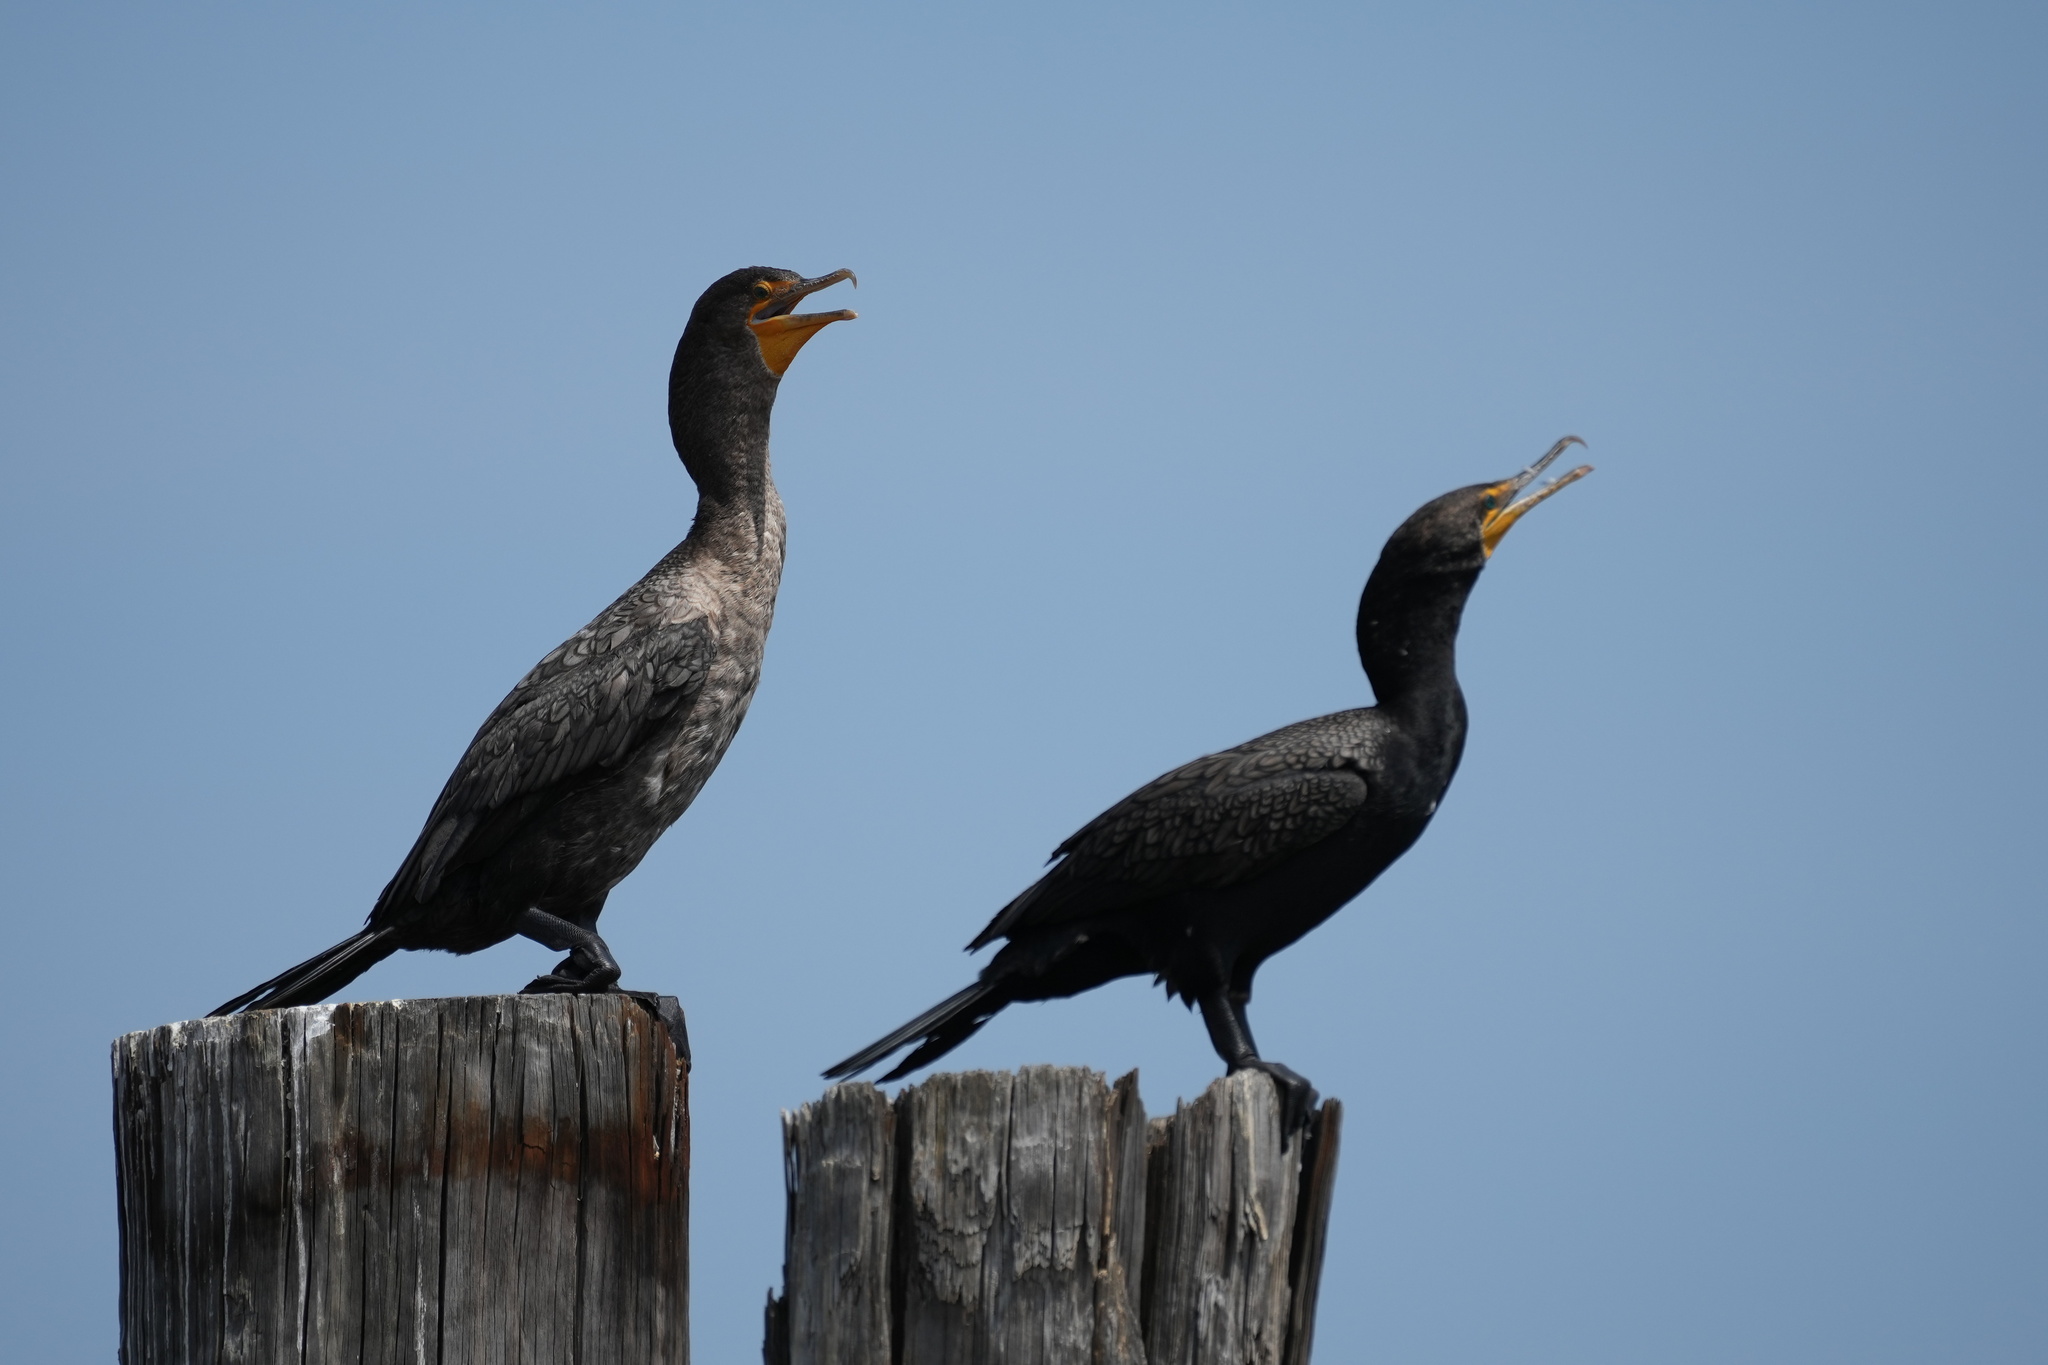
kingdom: Animalia
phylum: Chordata
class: Aves
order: Suliformes
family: Phalacrocoracidae
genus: Phalacrocorax
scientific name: Phalacrocorax auritus
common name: Double-crested cormorant
